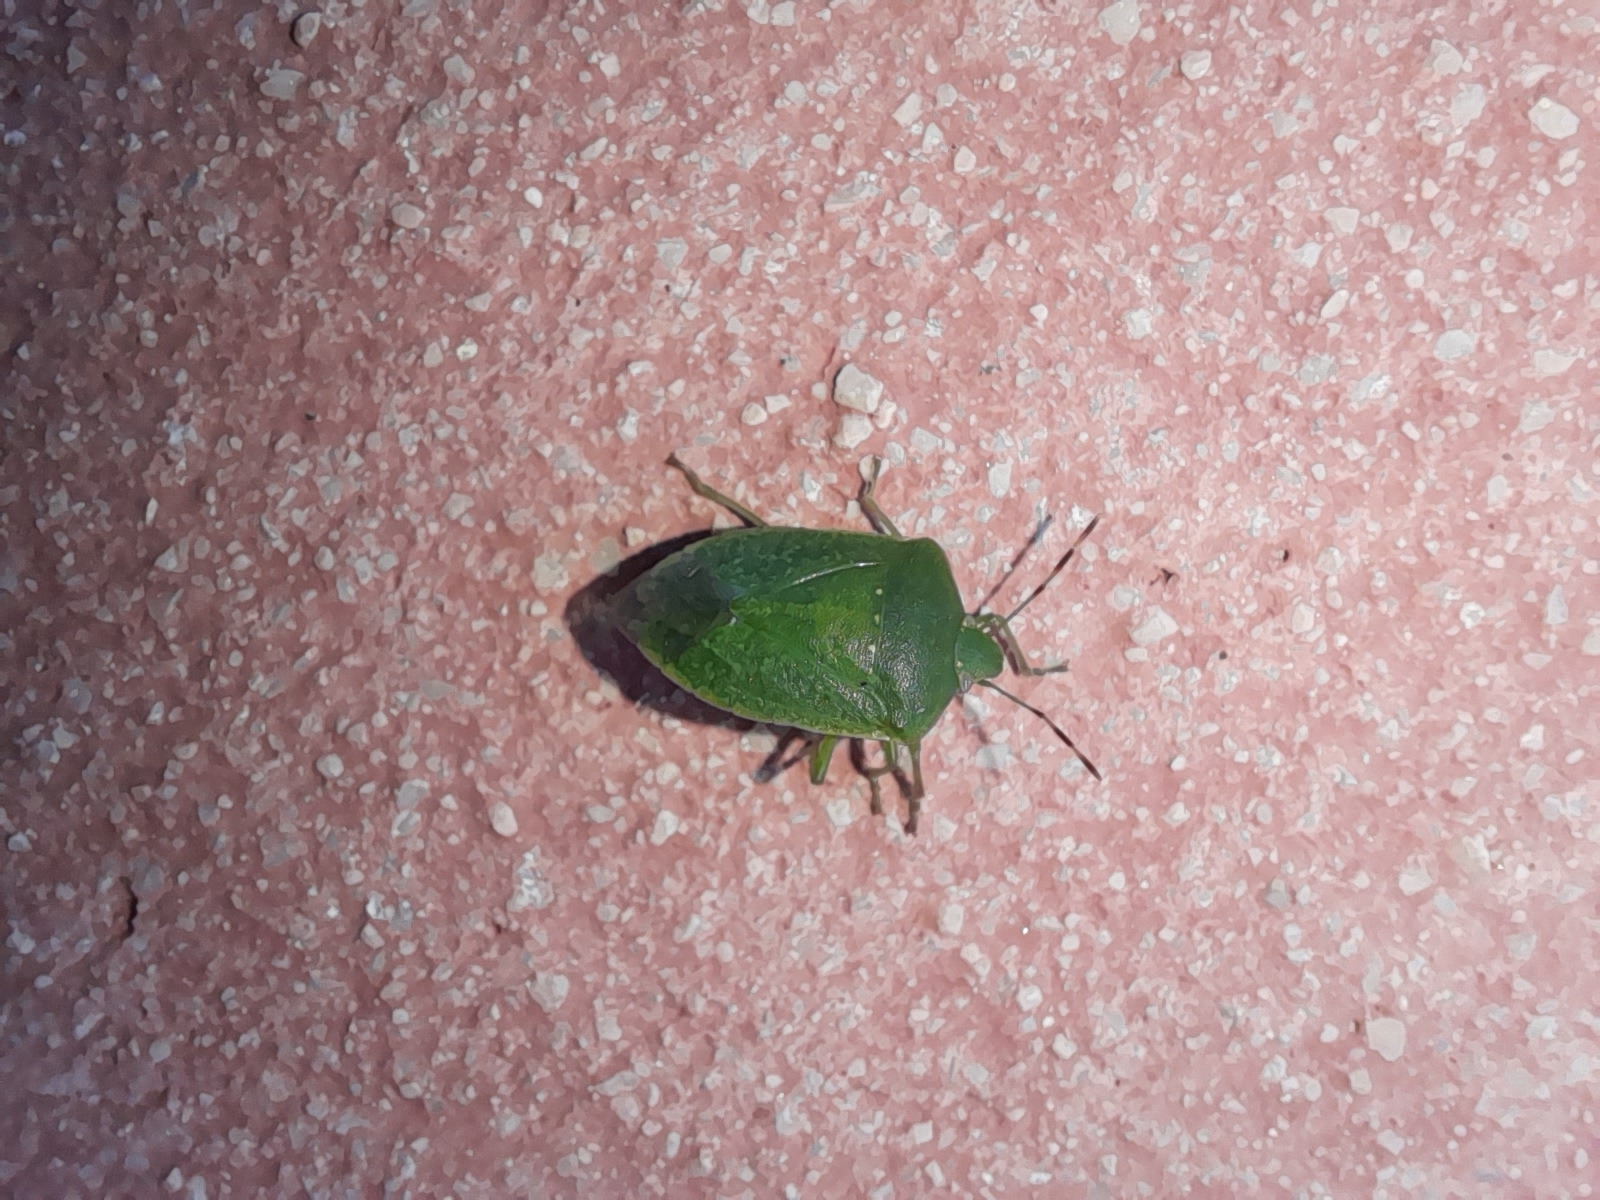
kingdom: Animalia
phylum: Arthropoda
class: Insecta
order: Hemiptera
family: Pentatomidae
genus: Nezara
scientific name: Nezara viridula
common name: Southern green stink bug
